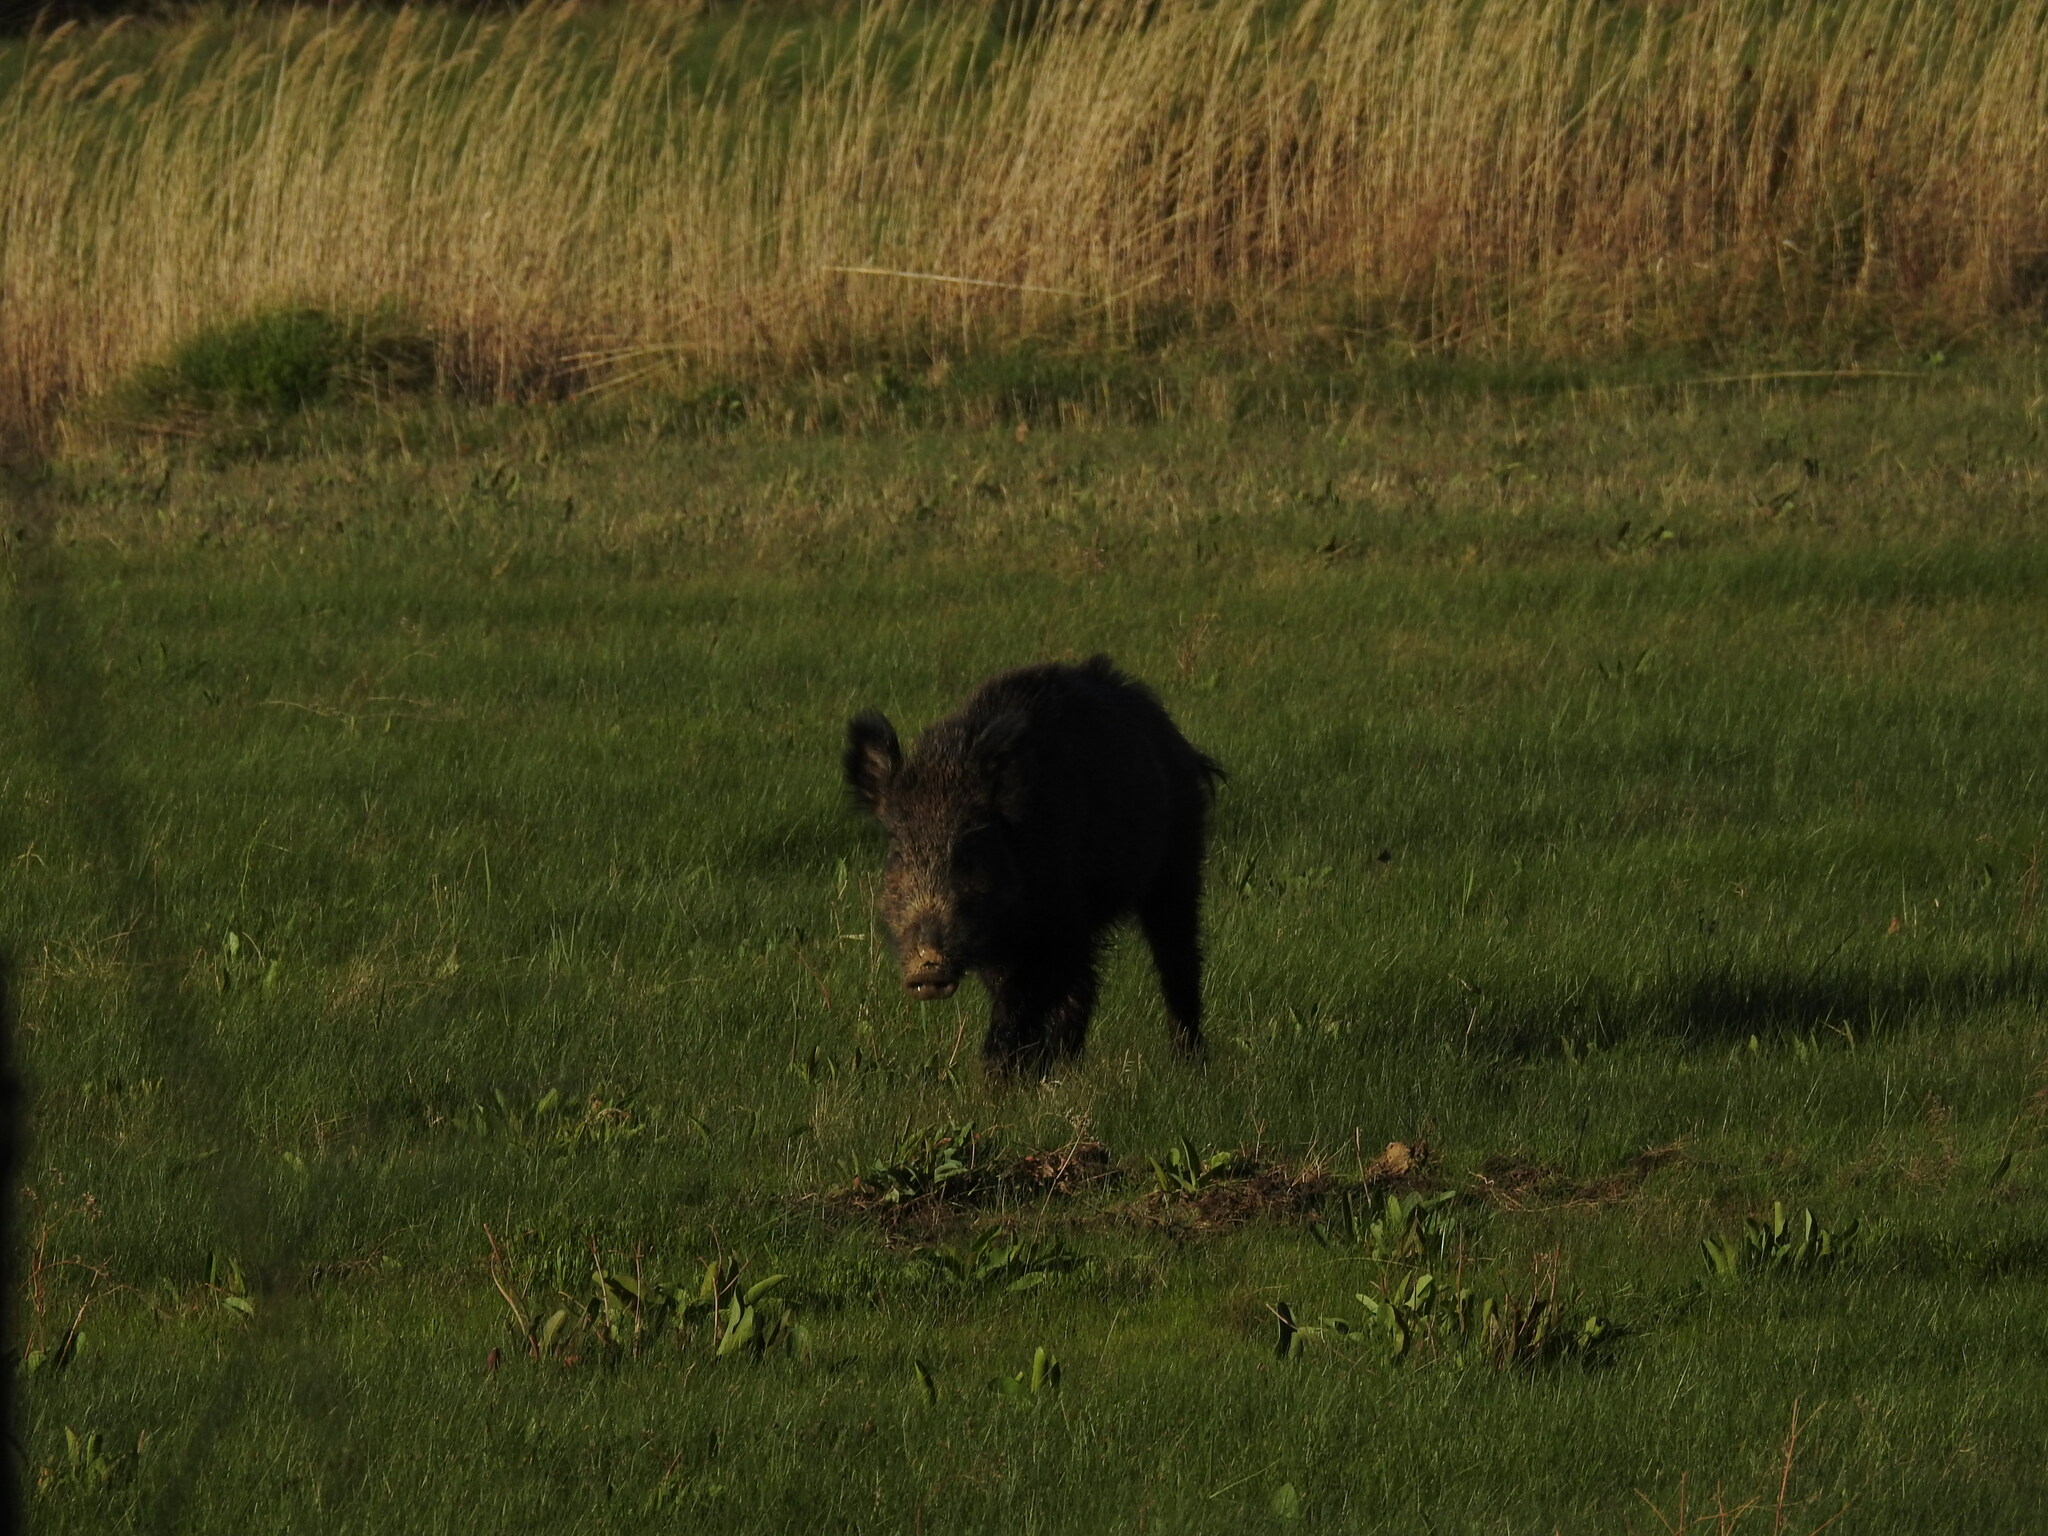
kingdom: Animalia
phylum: Chordata
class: Mammalia
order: Artiodactyla
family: Suidae
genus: Sus
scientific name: Sus scrofa
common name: Wild boar
